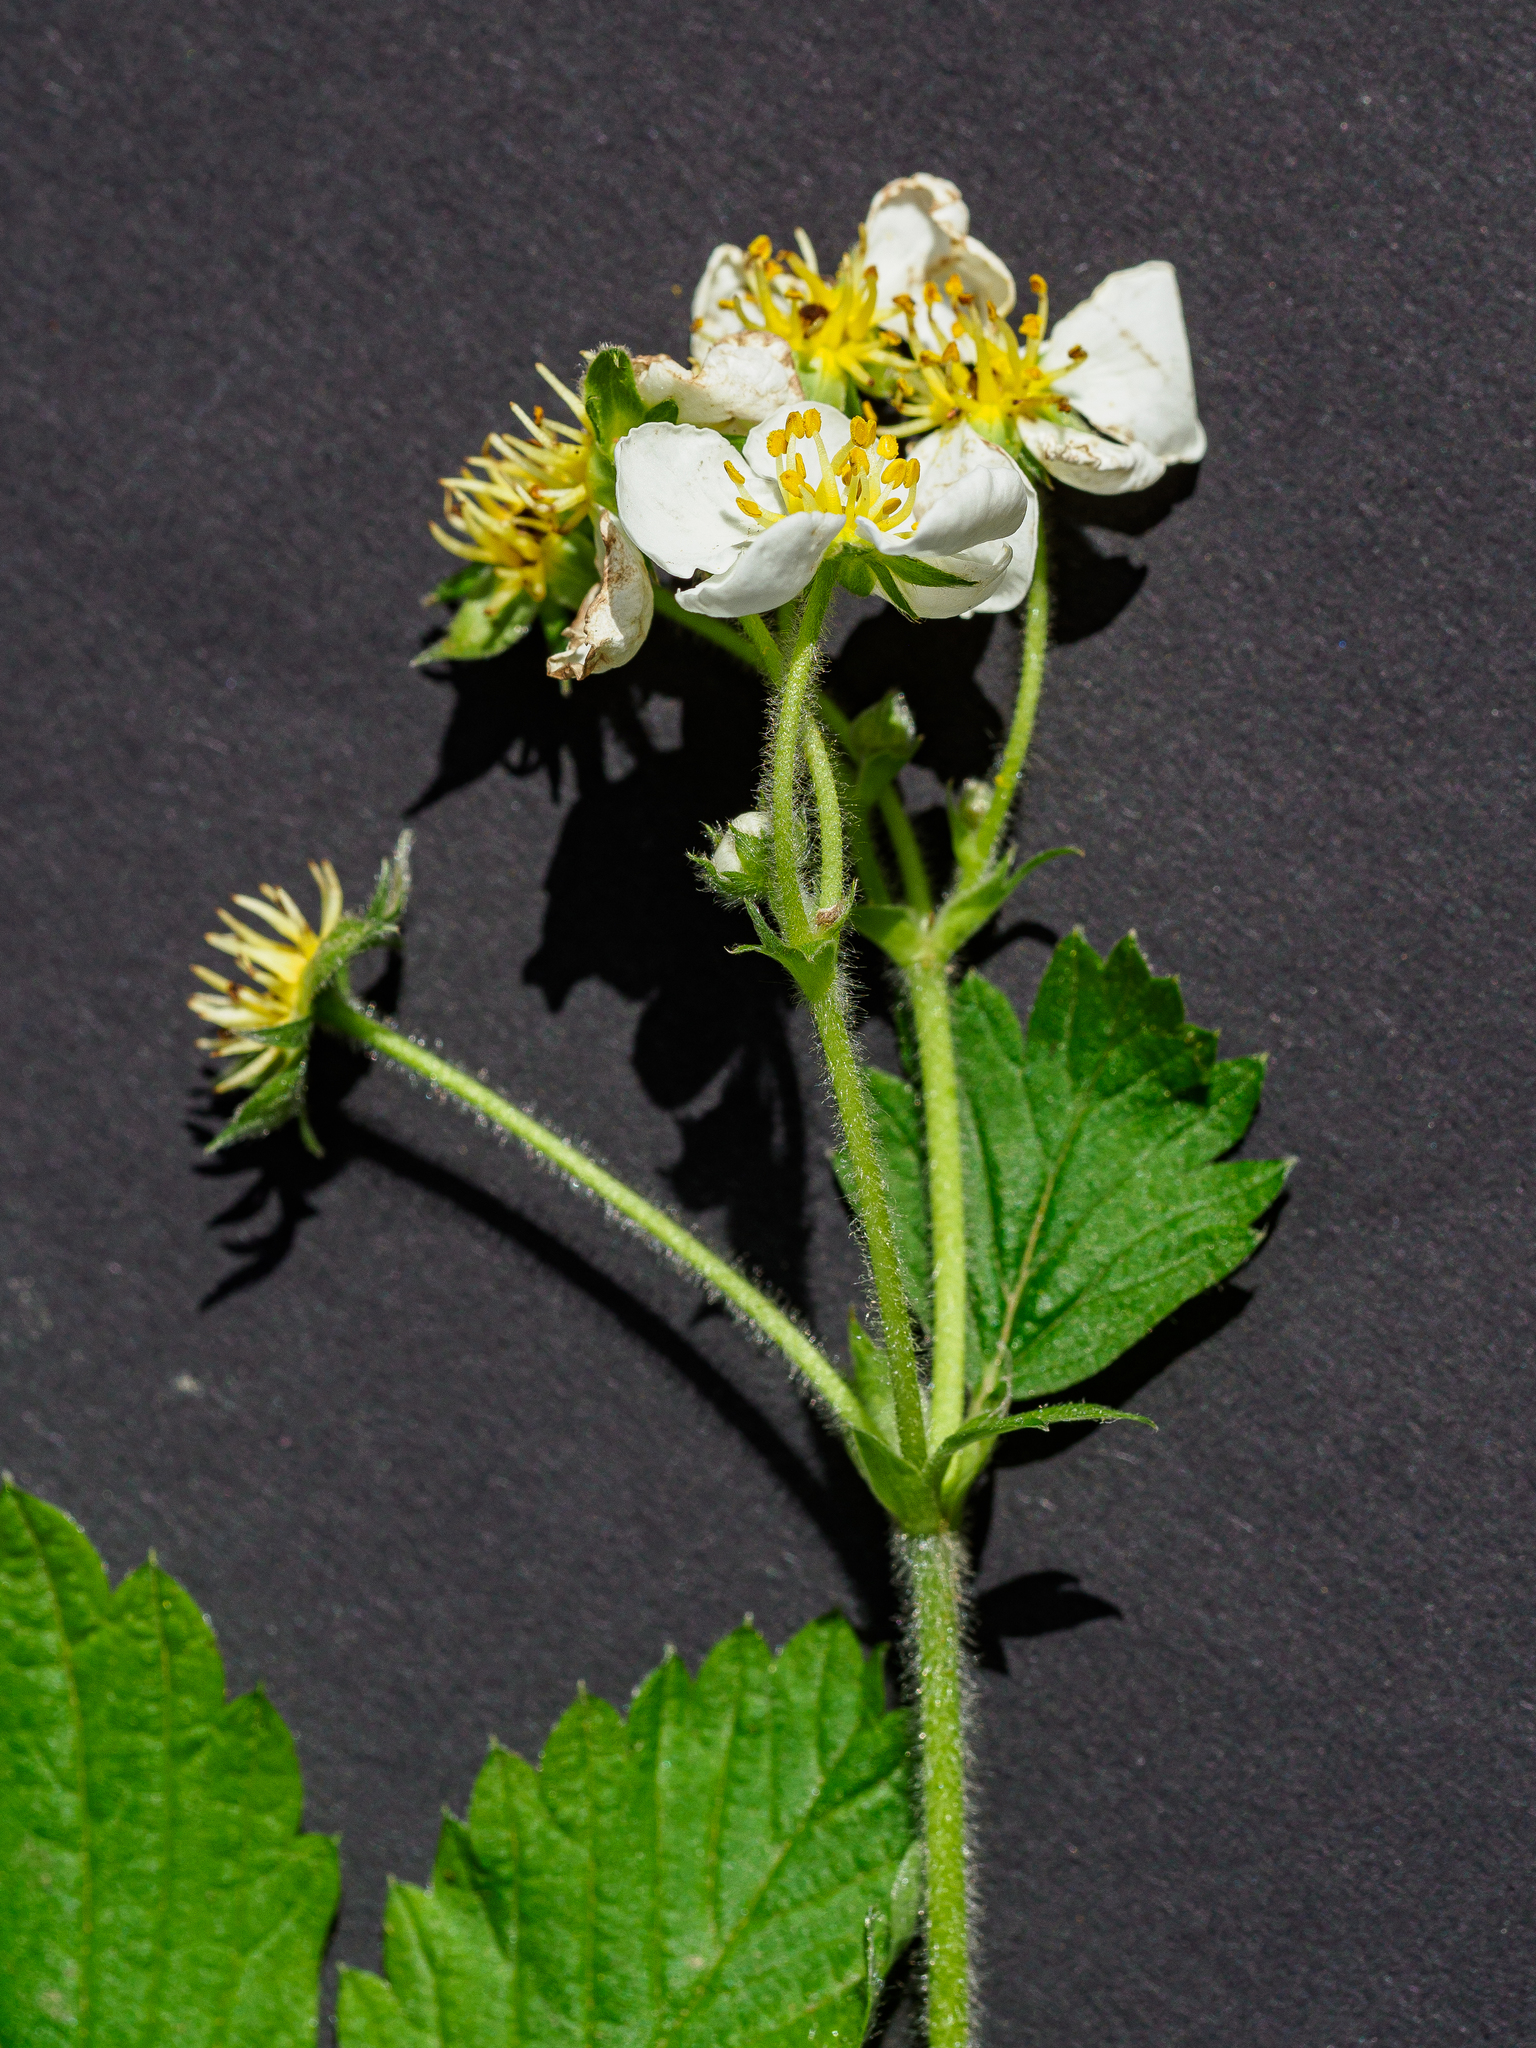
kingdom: Plantae
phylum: Tracheophyta
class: Magnoliopsida
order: Rosales
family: Rosaceae
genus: Fragaria
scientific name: Fragaria moschata
